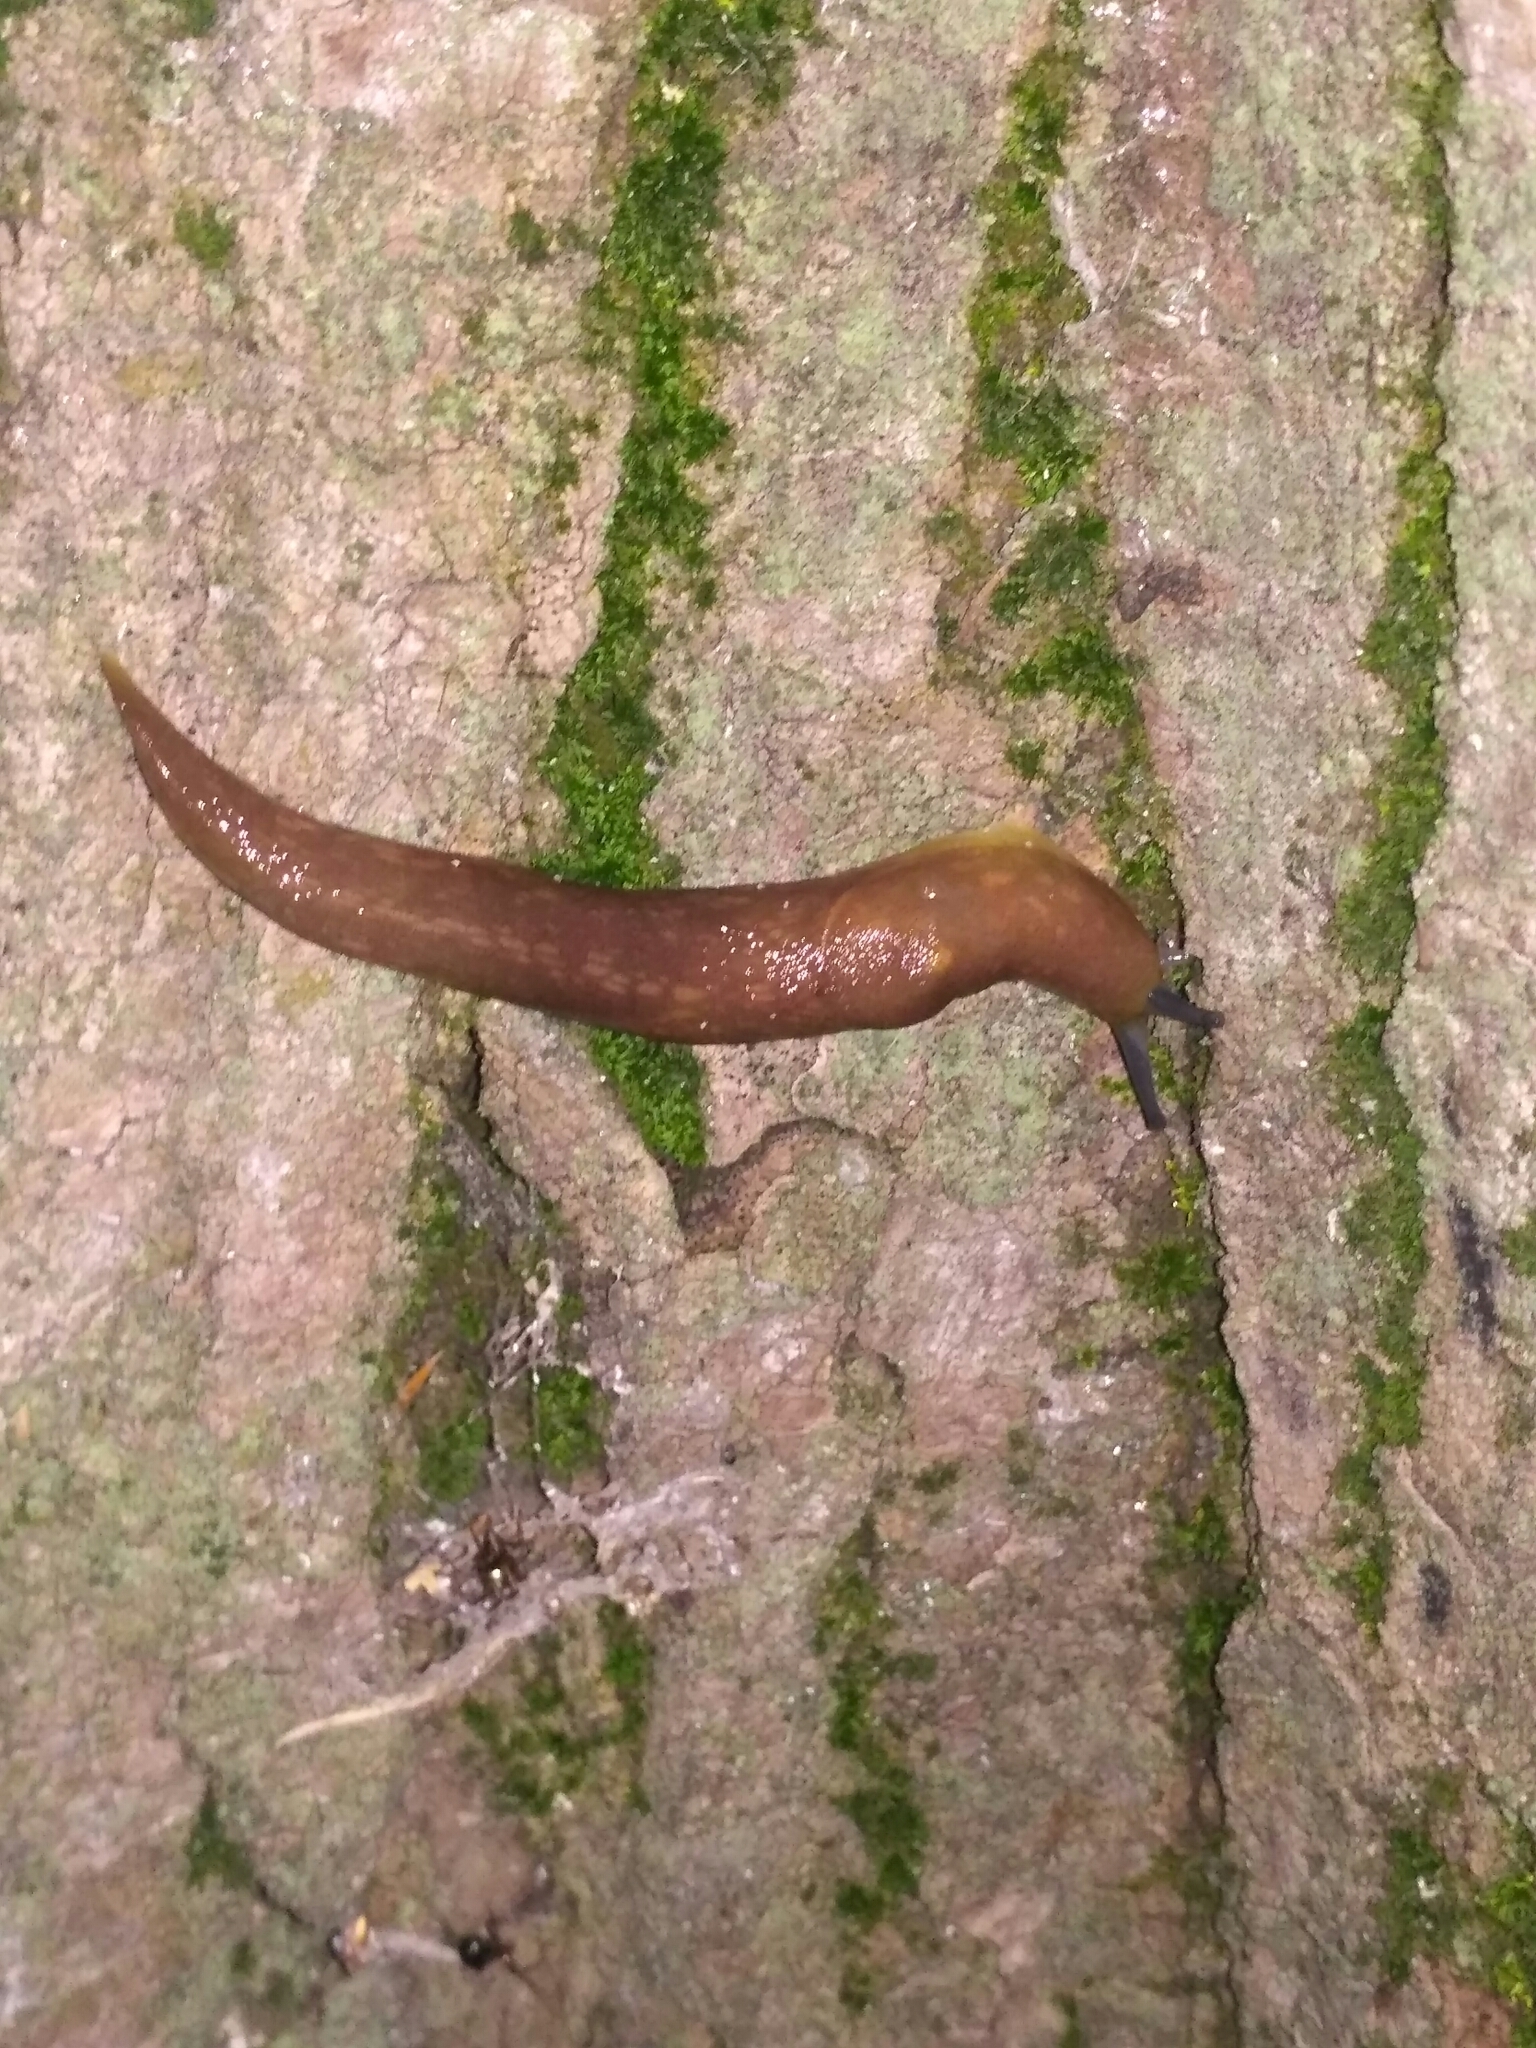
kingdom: Animalia
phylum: Mollusca
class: Gastropoda
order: Stylommatophora
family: Limacidae
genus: Limacus
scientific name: Limacus flavus
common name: Yellow gardenslug
